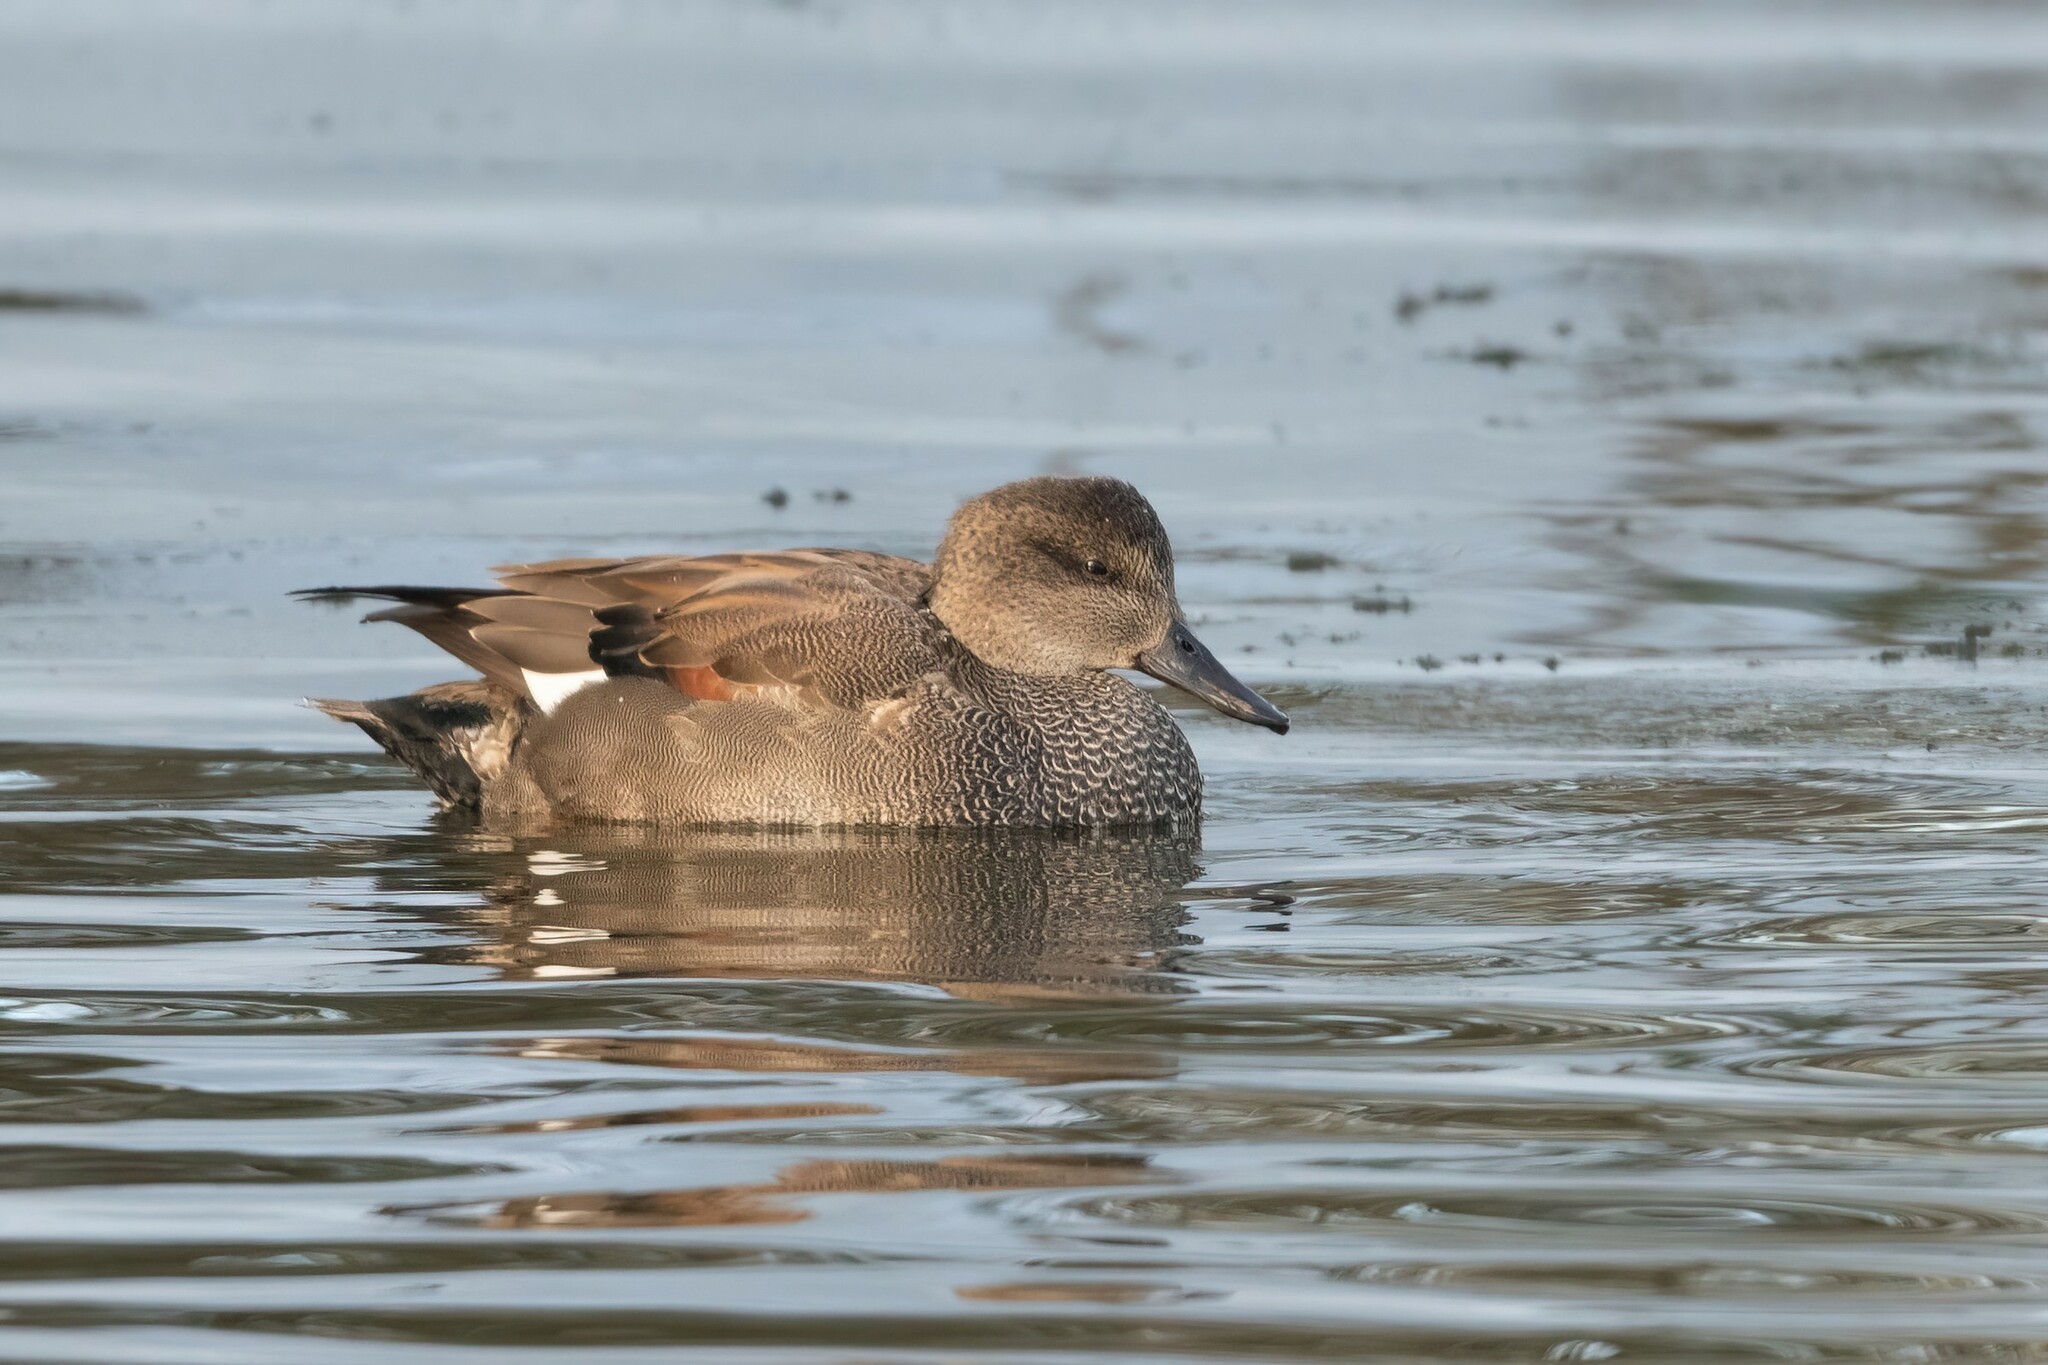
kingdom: Animalia
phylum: Chordata
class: Aves
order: Anseriformes
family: Anatidae
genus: Mareca
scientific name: Mareca strepera
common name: Gadwall
